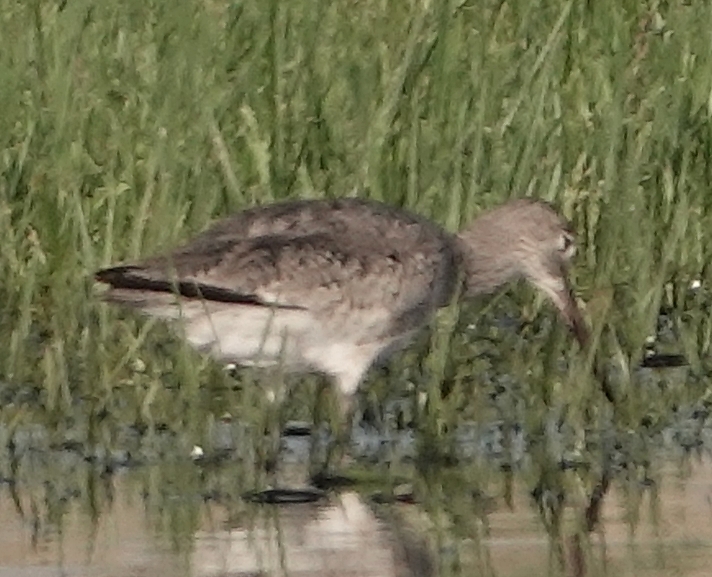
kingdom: Animalia
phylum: Chordata
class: Aves
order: Charadriiformes
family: Scolopacidae
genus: Tringa
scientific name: Tringa semipalmata
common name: Willet
